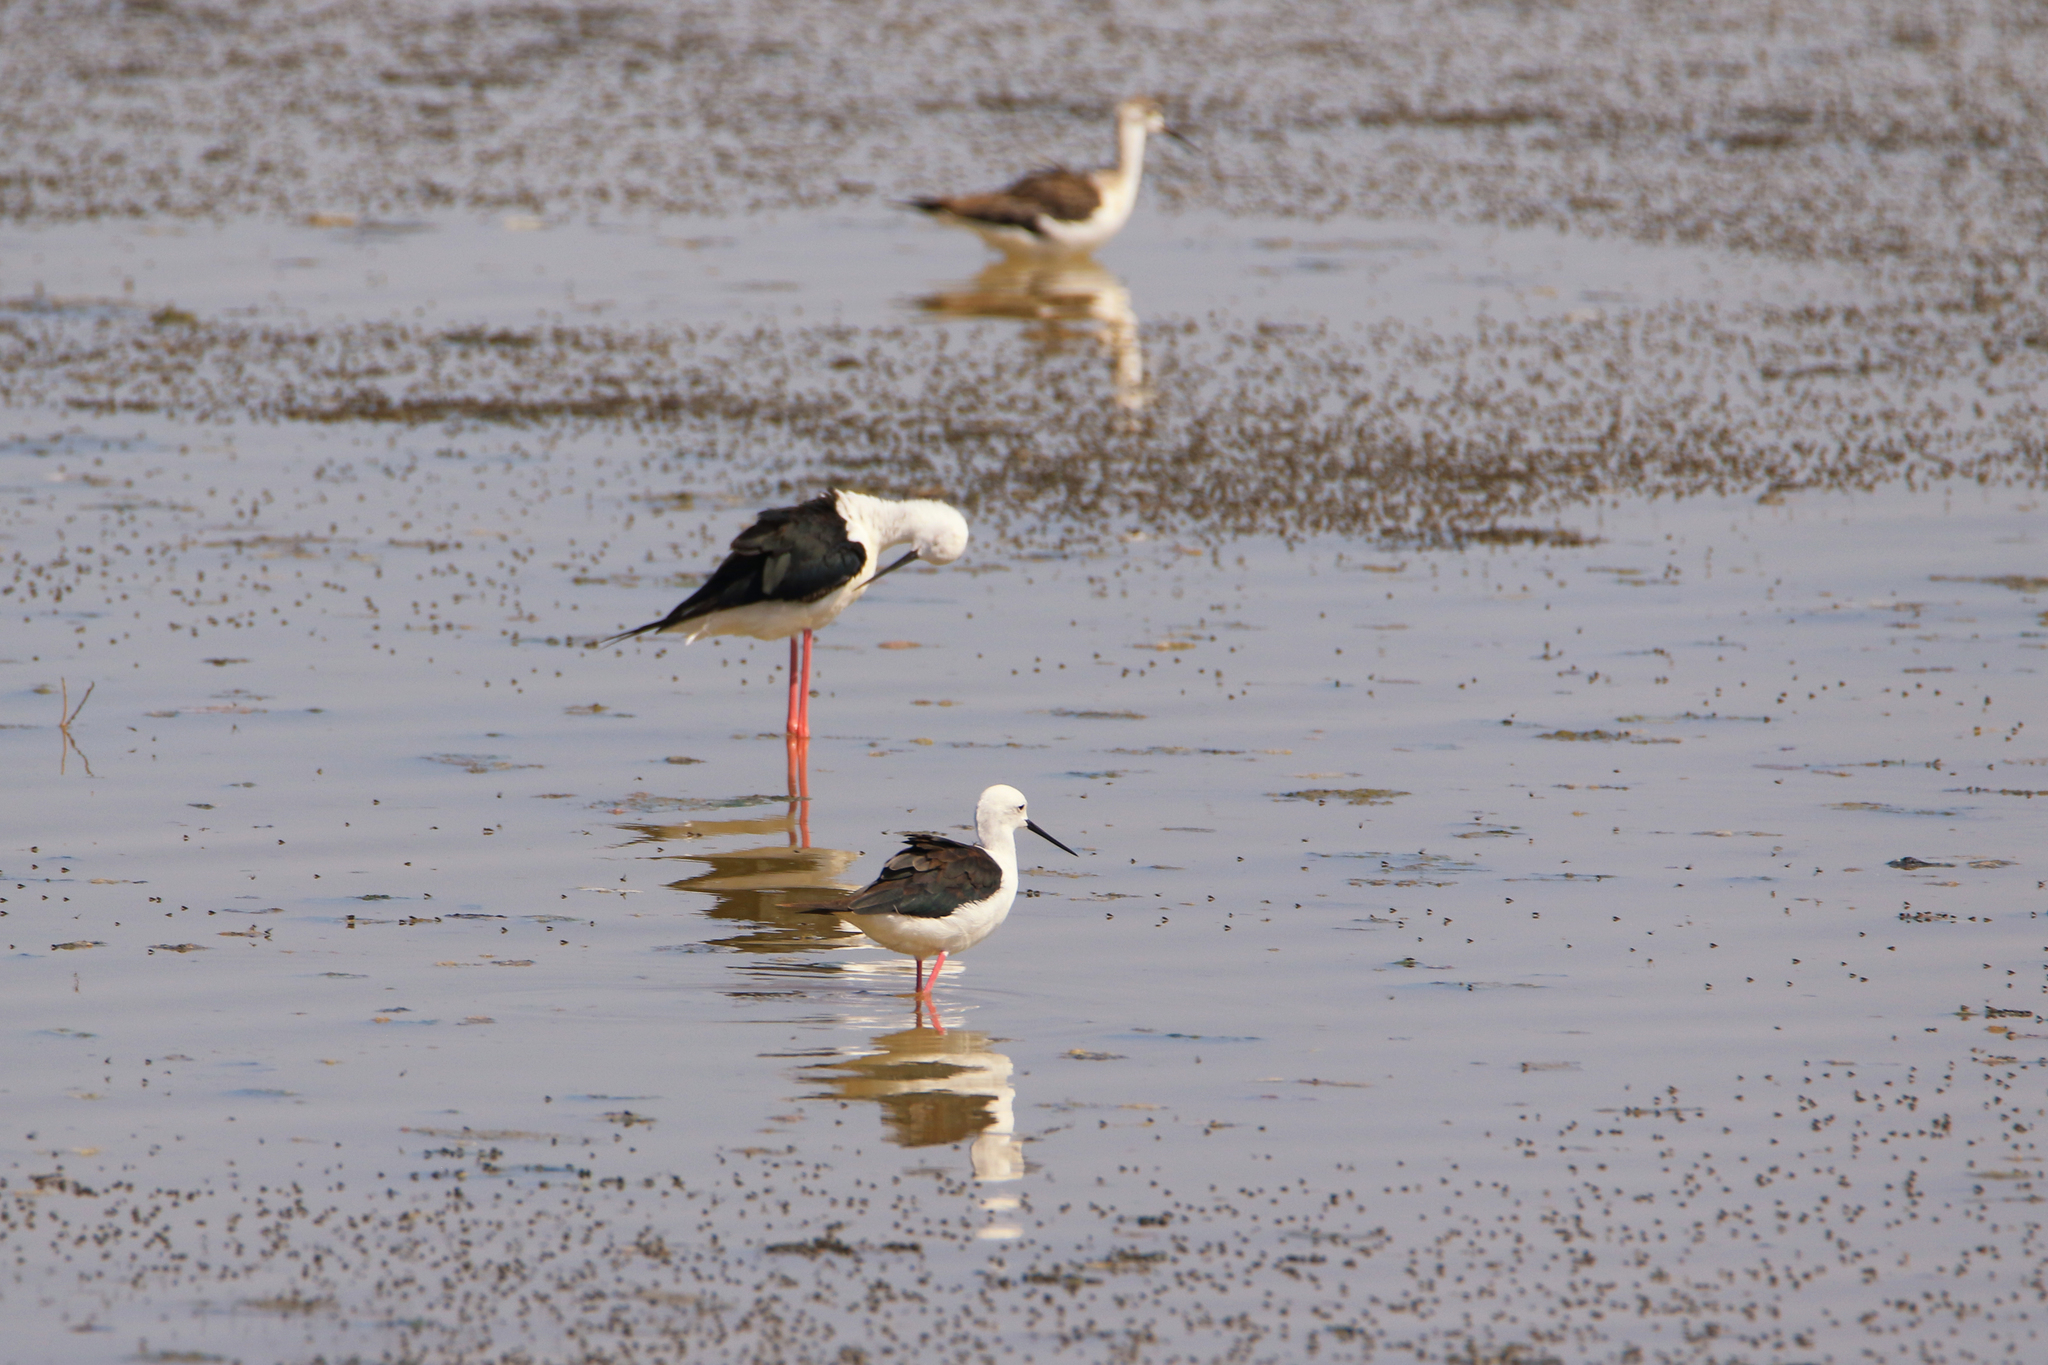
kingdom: Animalia
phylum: Chordata
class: Aves
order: Charadriiformes
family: Recurvirostridae
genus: Himantopus
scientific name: Himantopus himantopus
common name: Black-winged stilt
